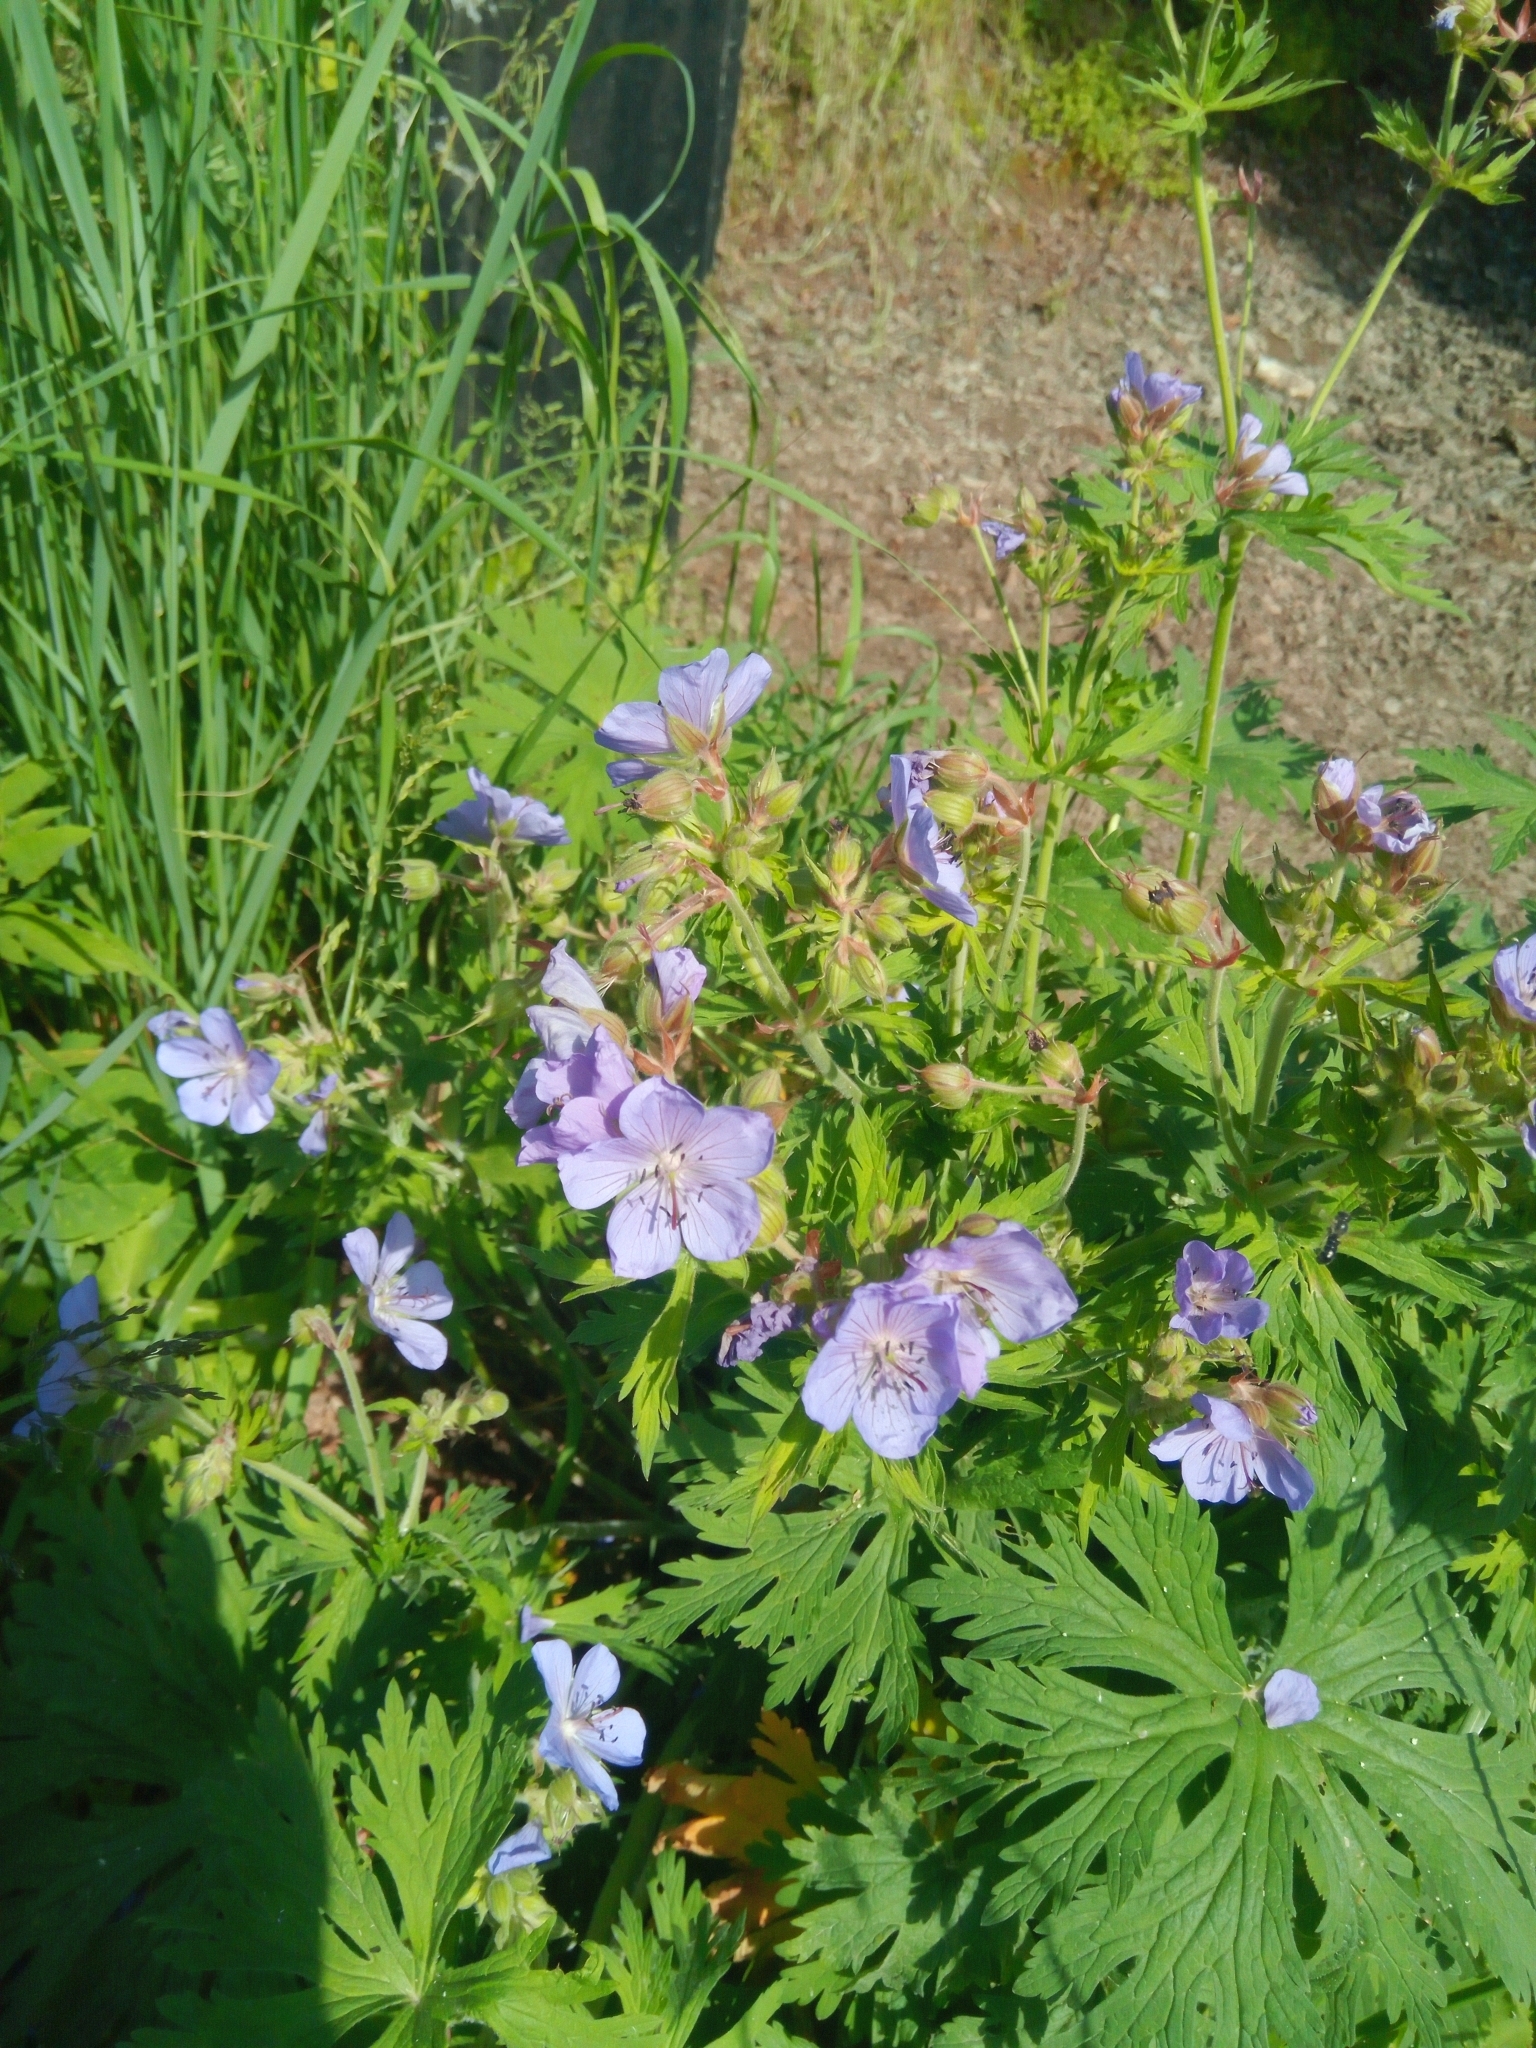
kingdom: Plantae
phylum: Tracheophyta
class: Magnoliopsida
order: Geraniales
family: Geraniaceae
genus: Geranium
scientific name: Geranium pratense
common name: Meadow crane's-bill
